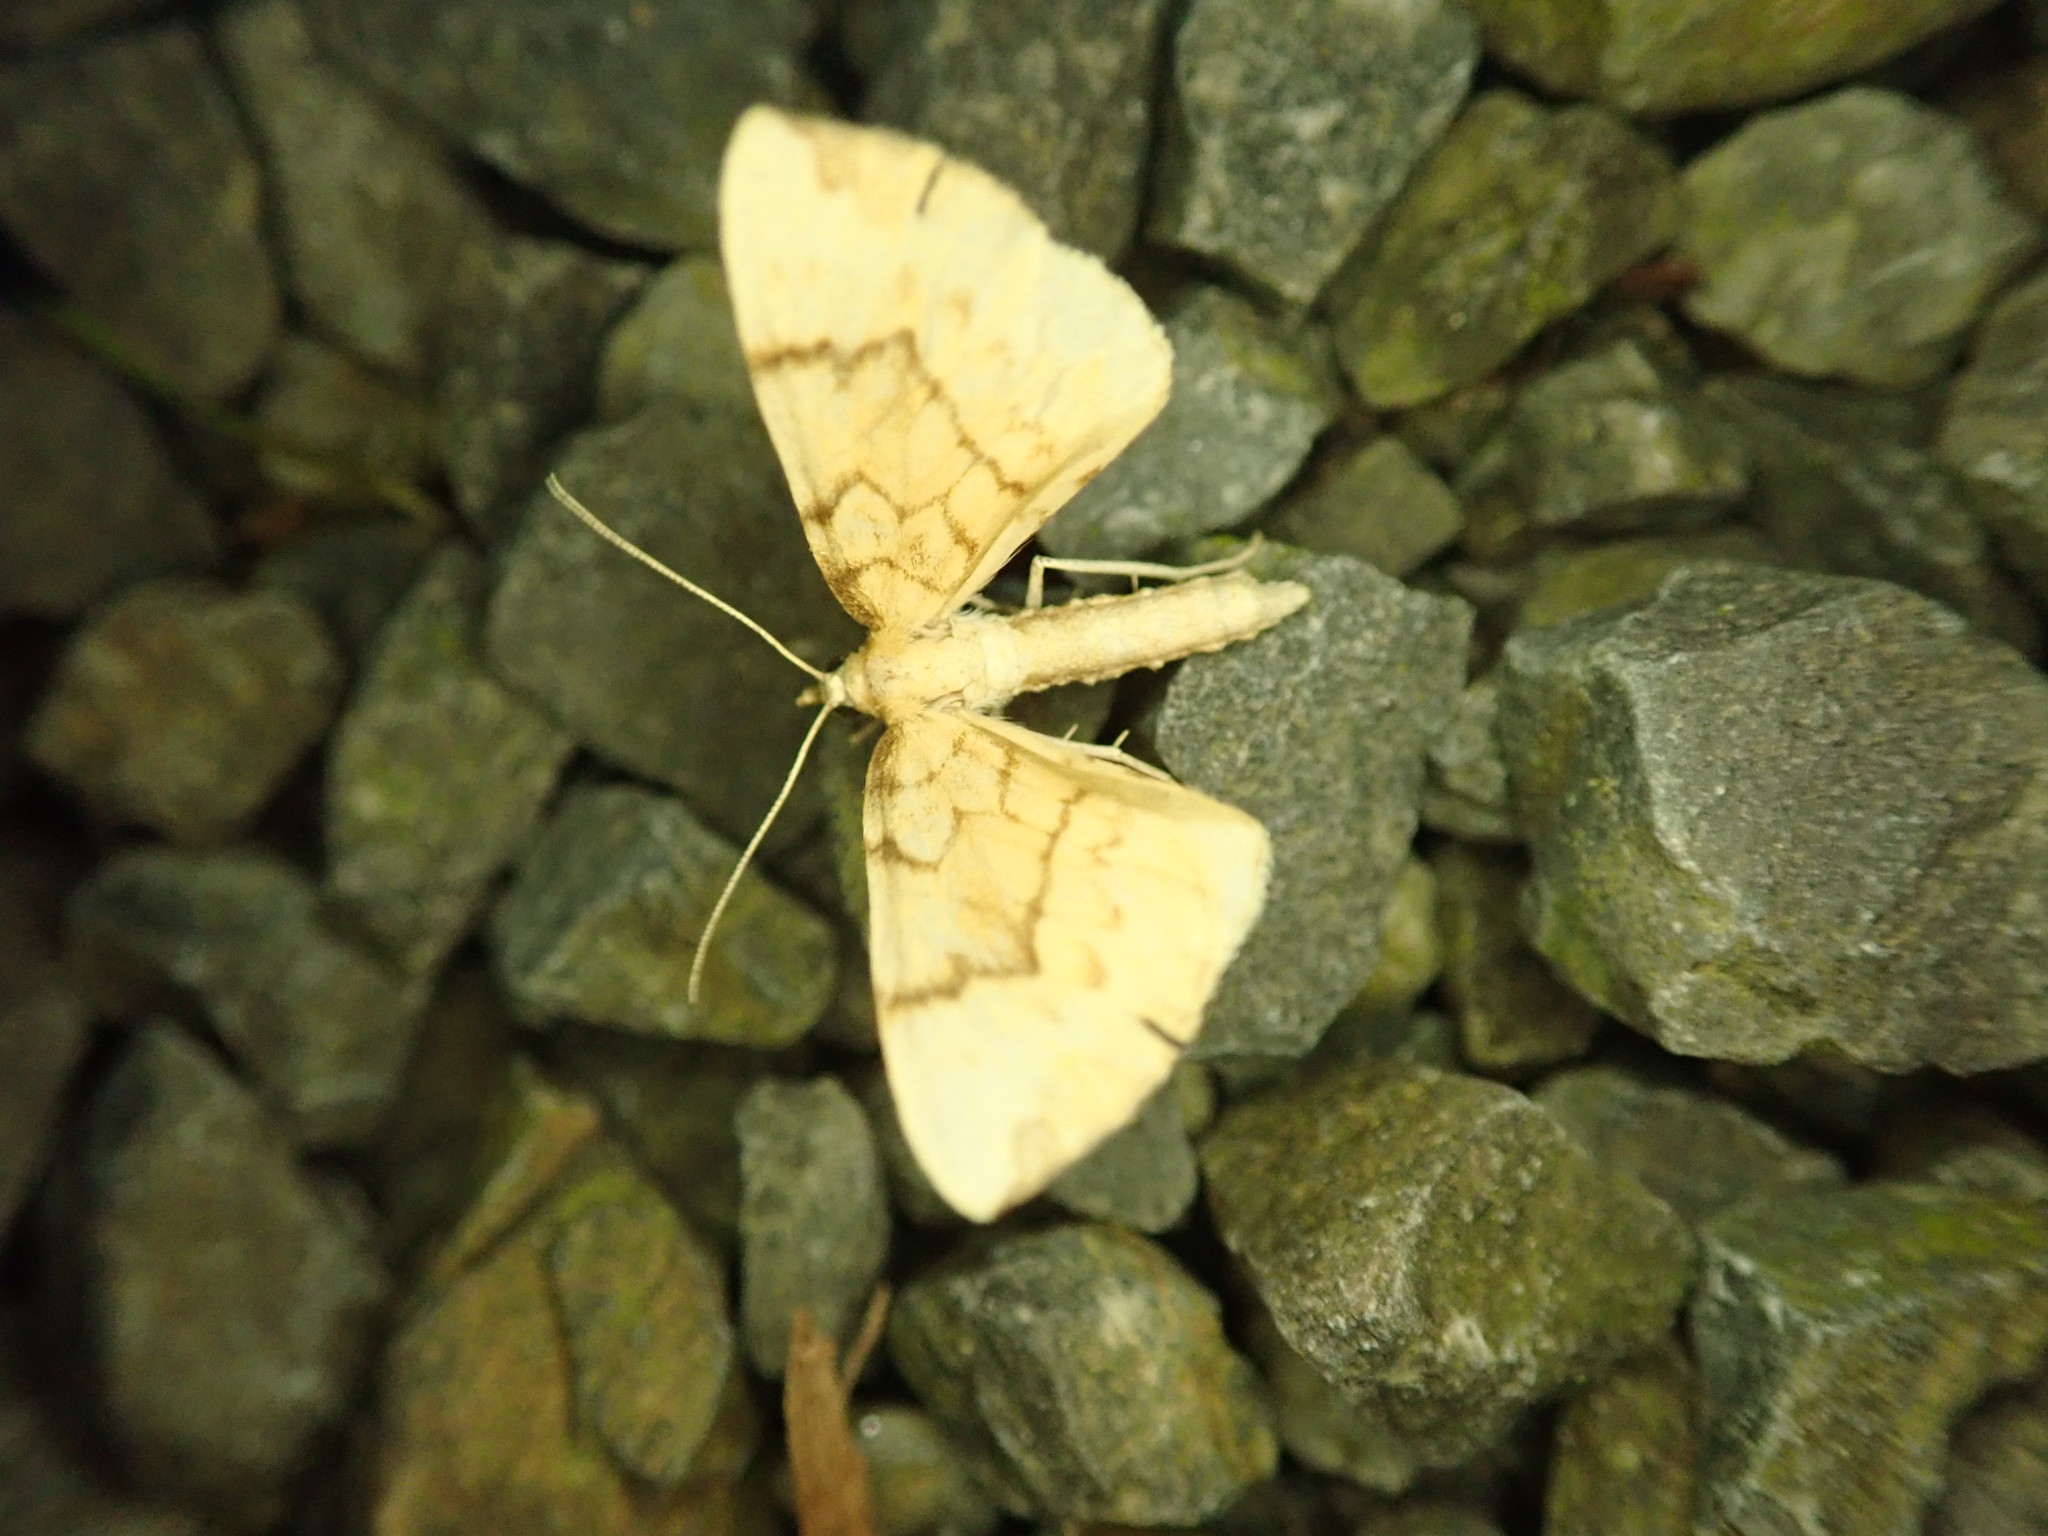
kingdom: Animalia
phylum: Arthropoda
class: Insecta
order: Lepidoptera
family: Geometridae
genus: Eulithis
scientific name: Eulithis pyraliata
